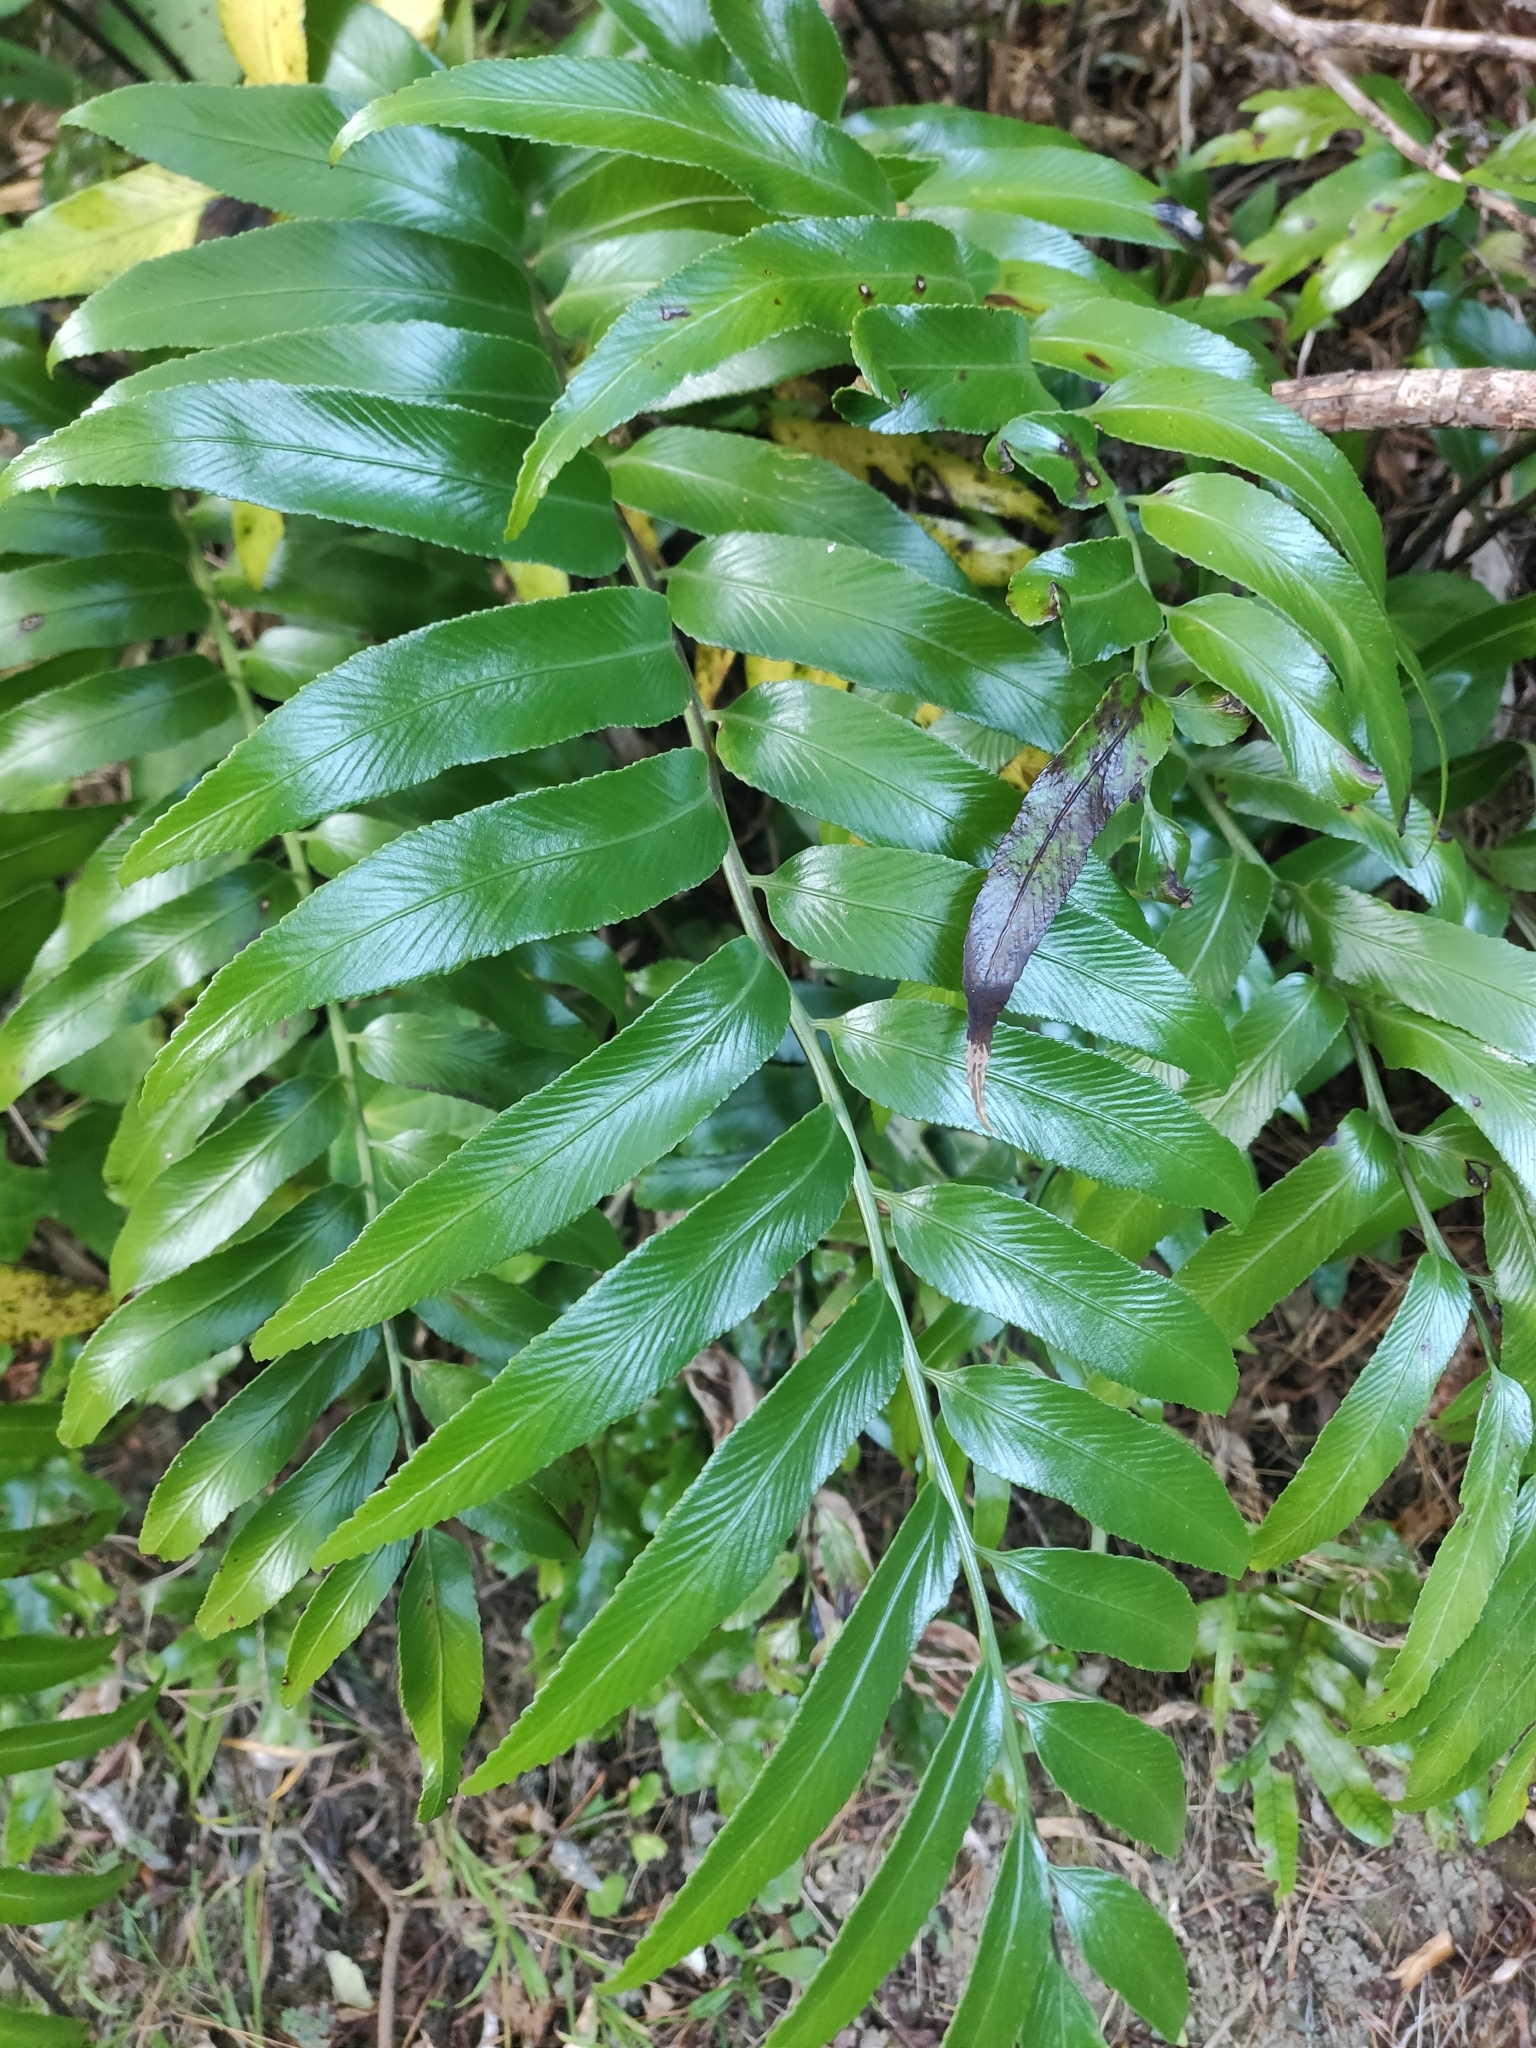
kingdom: Plantae
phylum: Tracheophyta
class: Polypodiopsida
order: Polypodiales
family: Aspleniaceae
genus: Asplenium
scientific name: Asplenium oblongifolium
